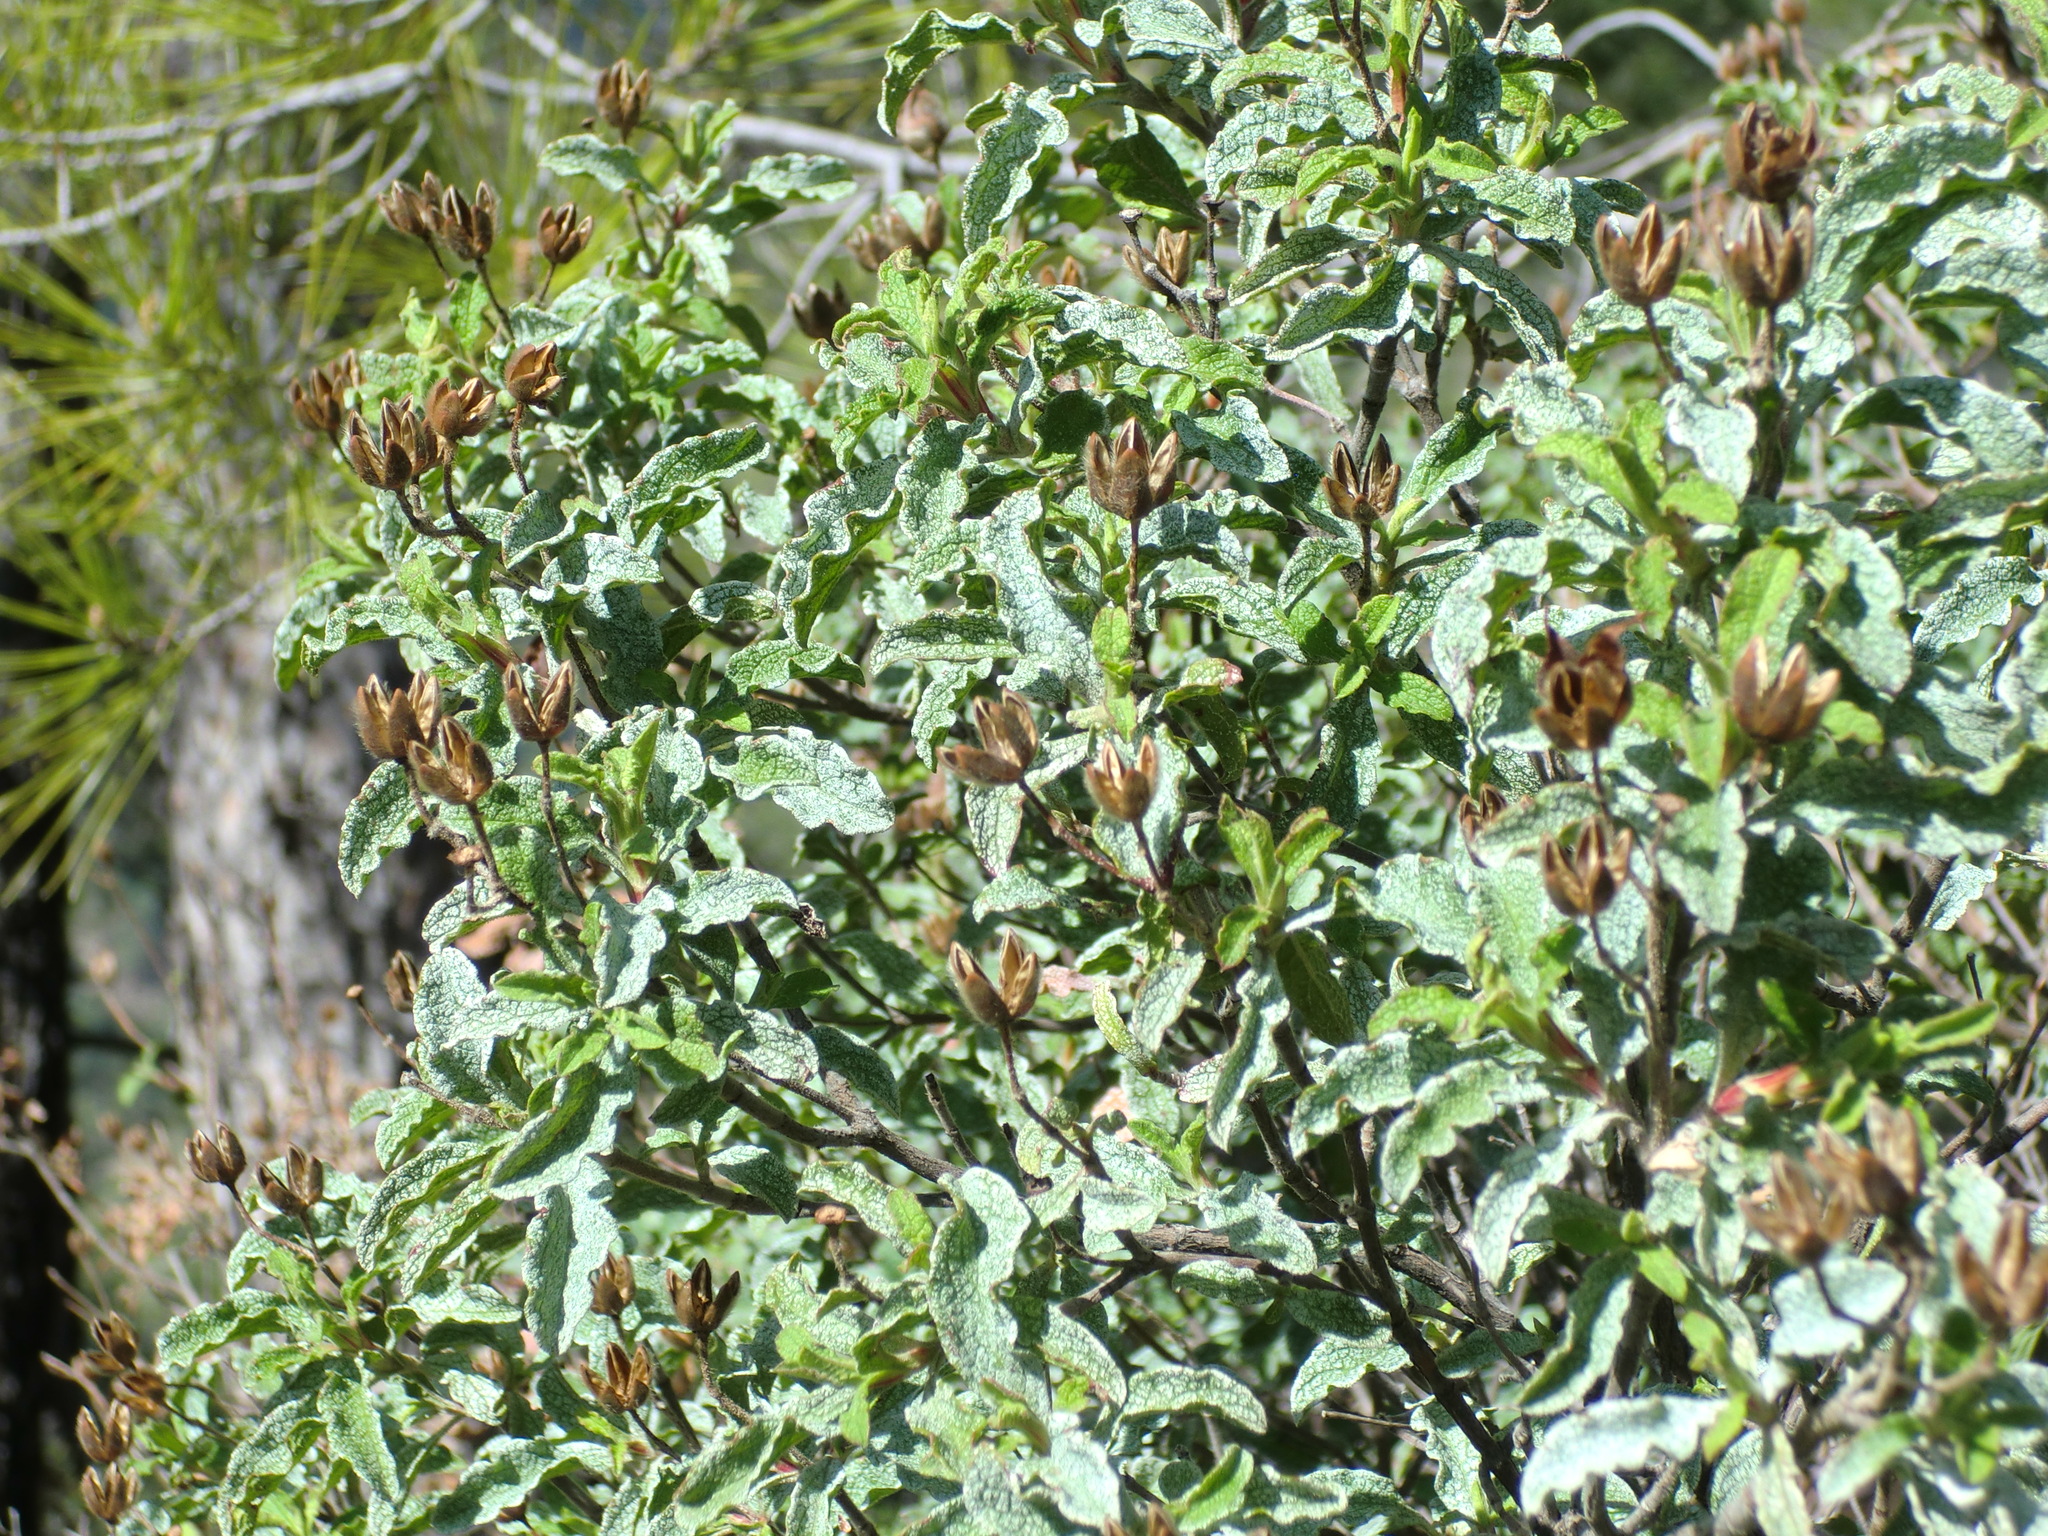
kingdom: Plantae
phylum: Tracheophyta
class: Magnoliopsida
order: Malvales
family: Cistaceae
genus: Cistus
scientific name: Cistus creticus
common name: Cretan rockrose
